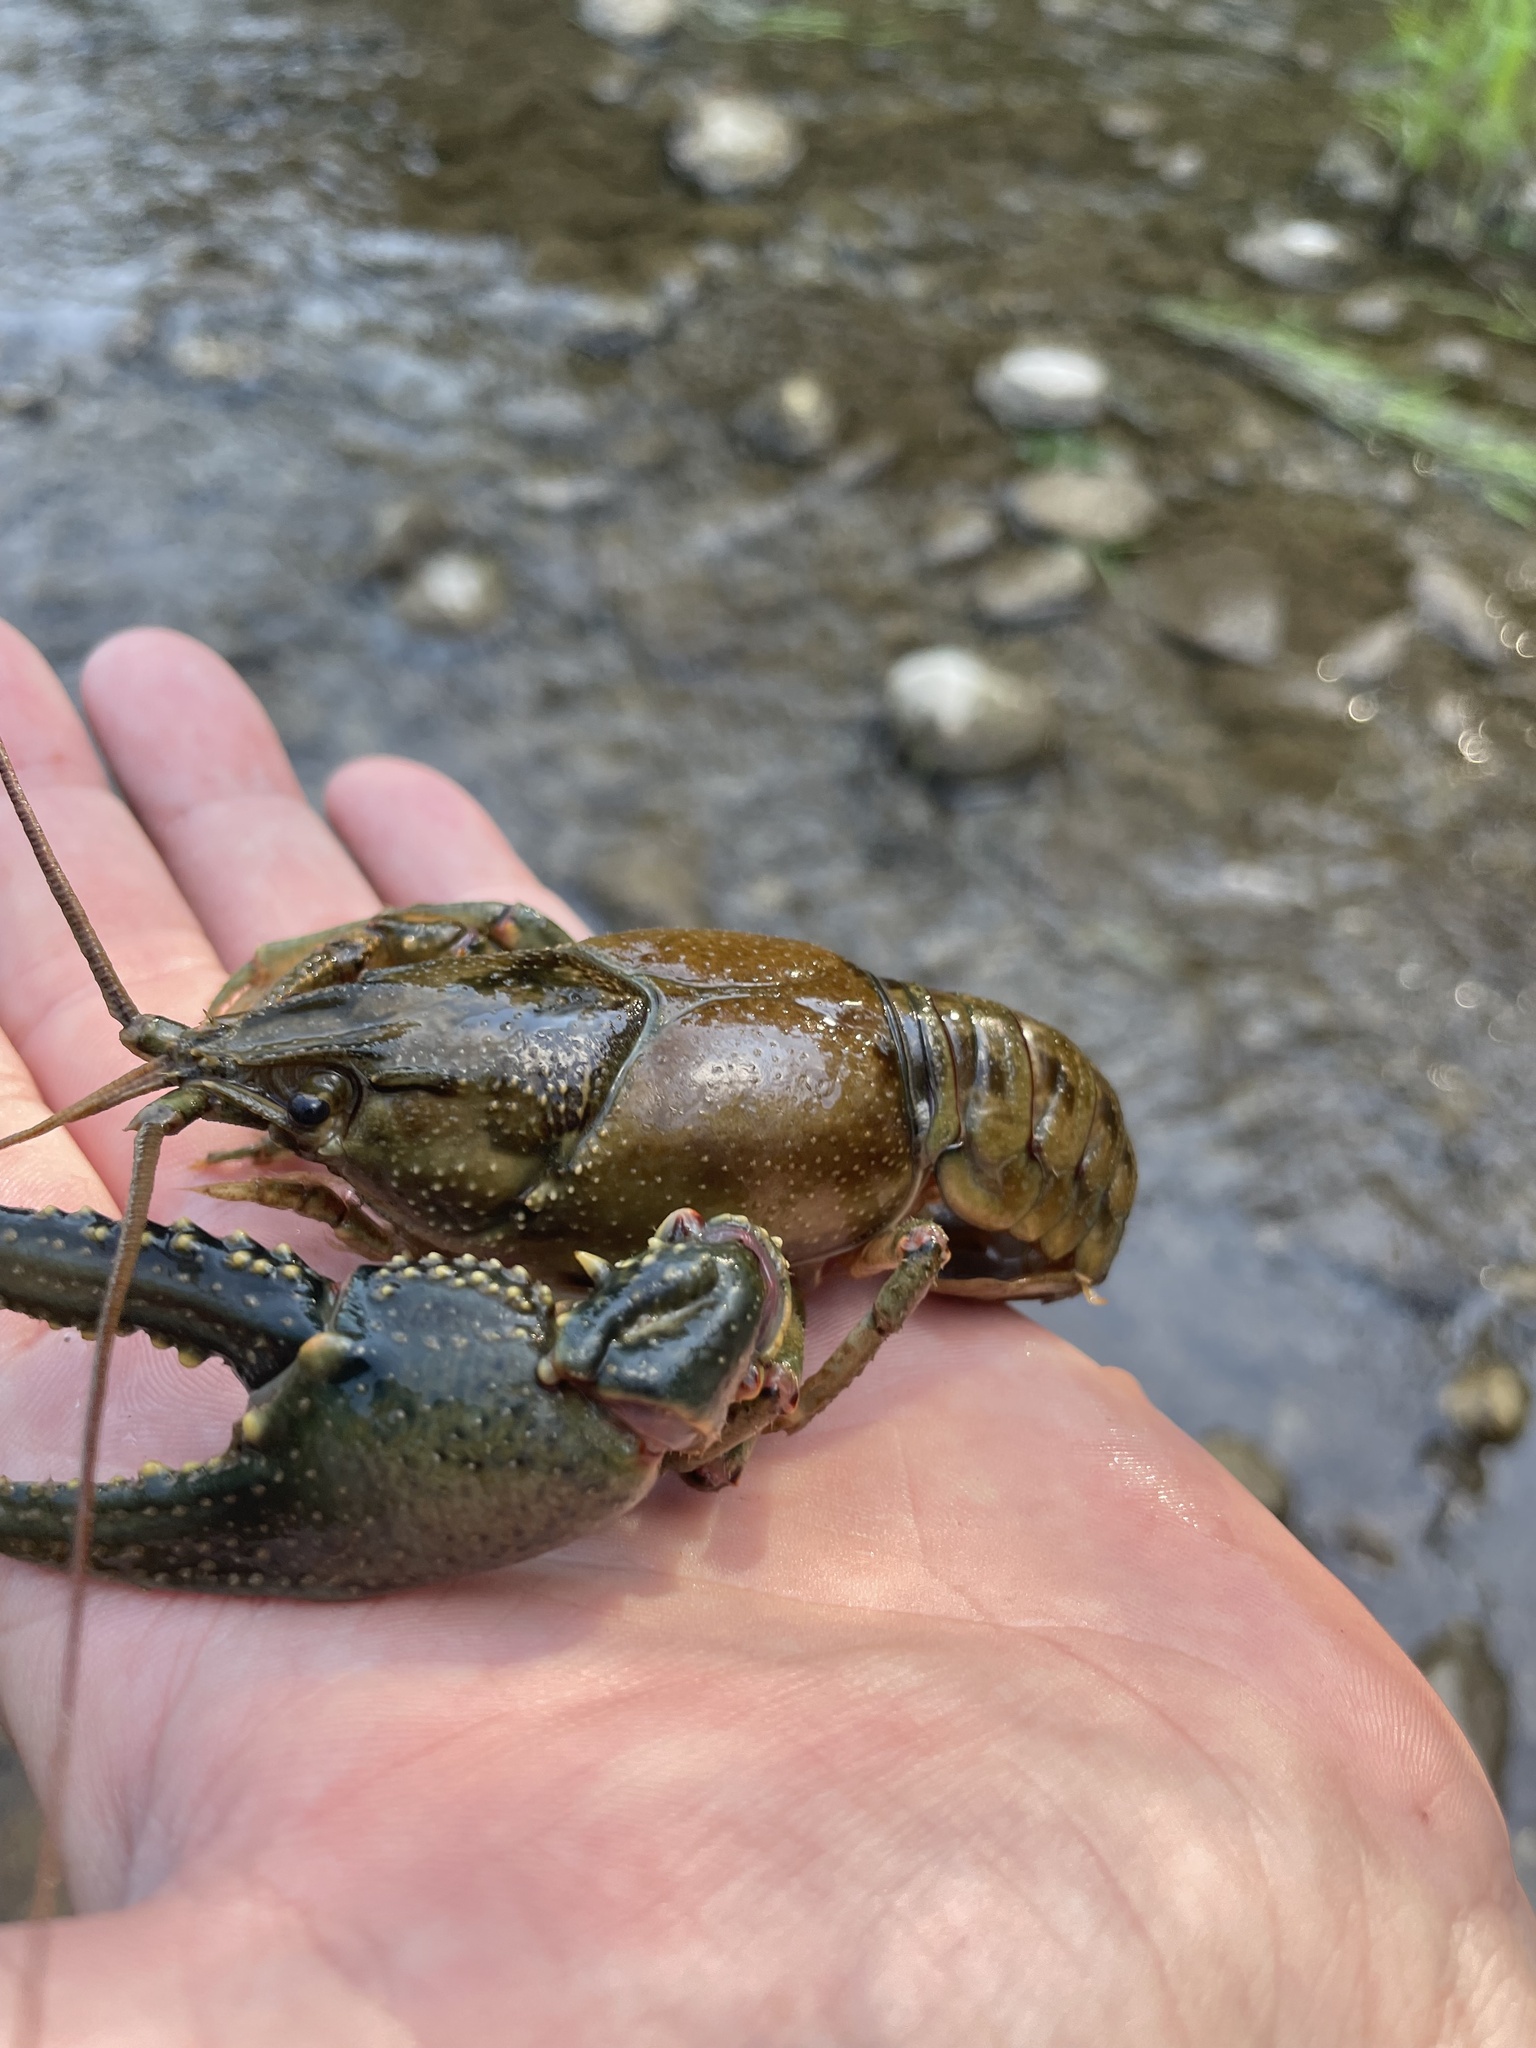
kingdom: Animalia
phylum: Arthropoda
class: Malacostraca
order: Decapoda
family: Cambaridae
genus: Faxonius
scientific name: Faxonius virilis
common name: Virile crayfish
